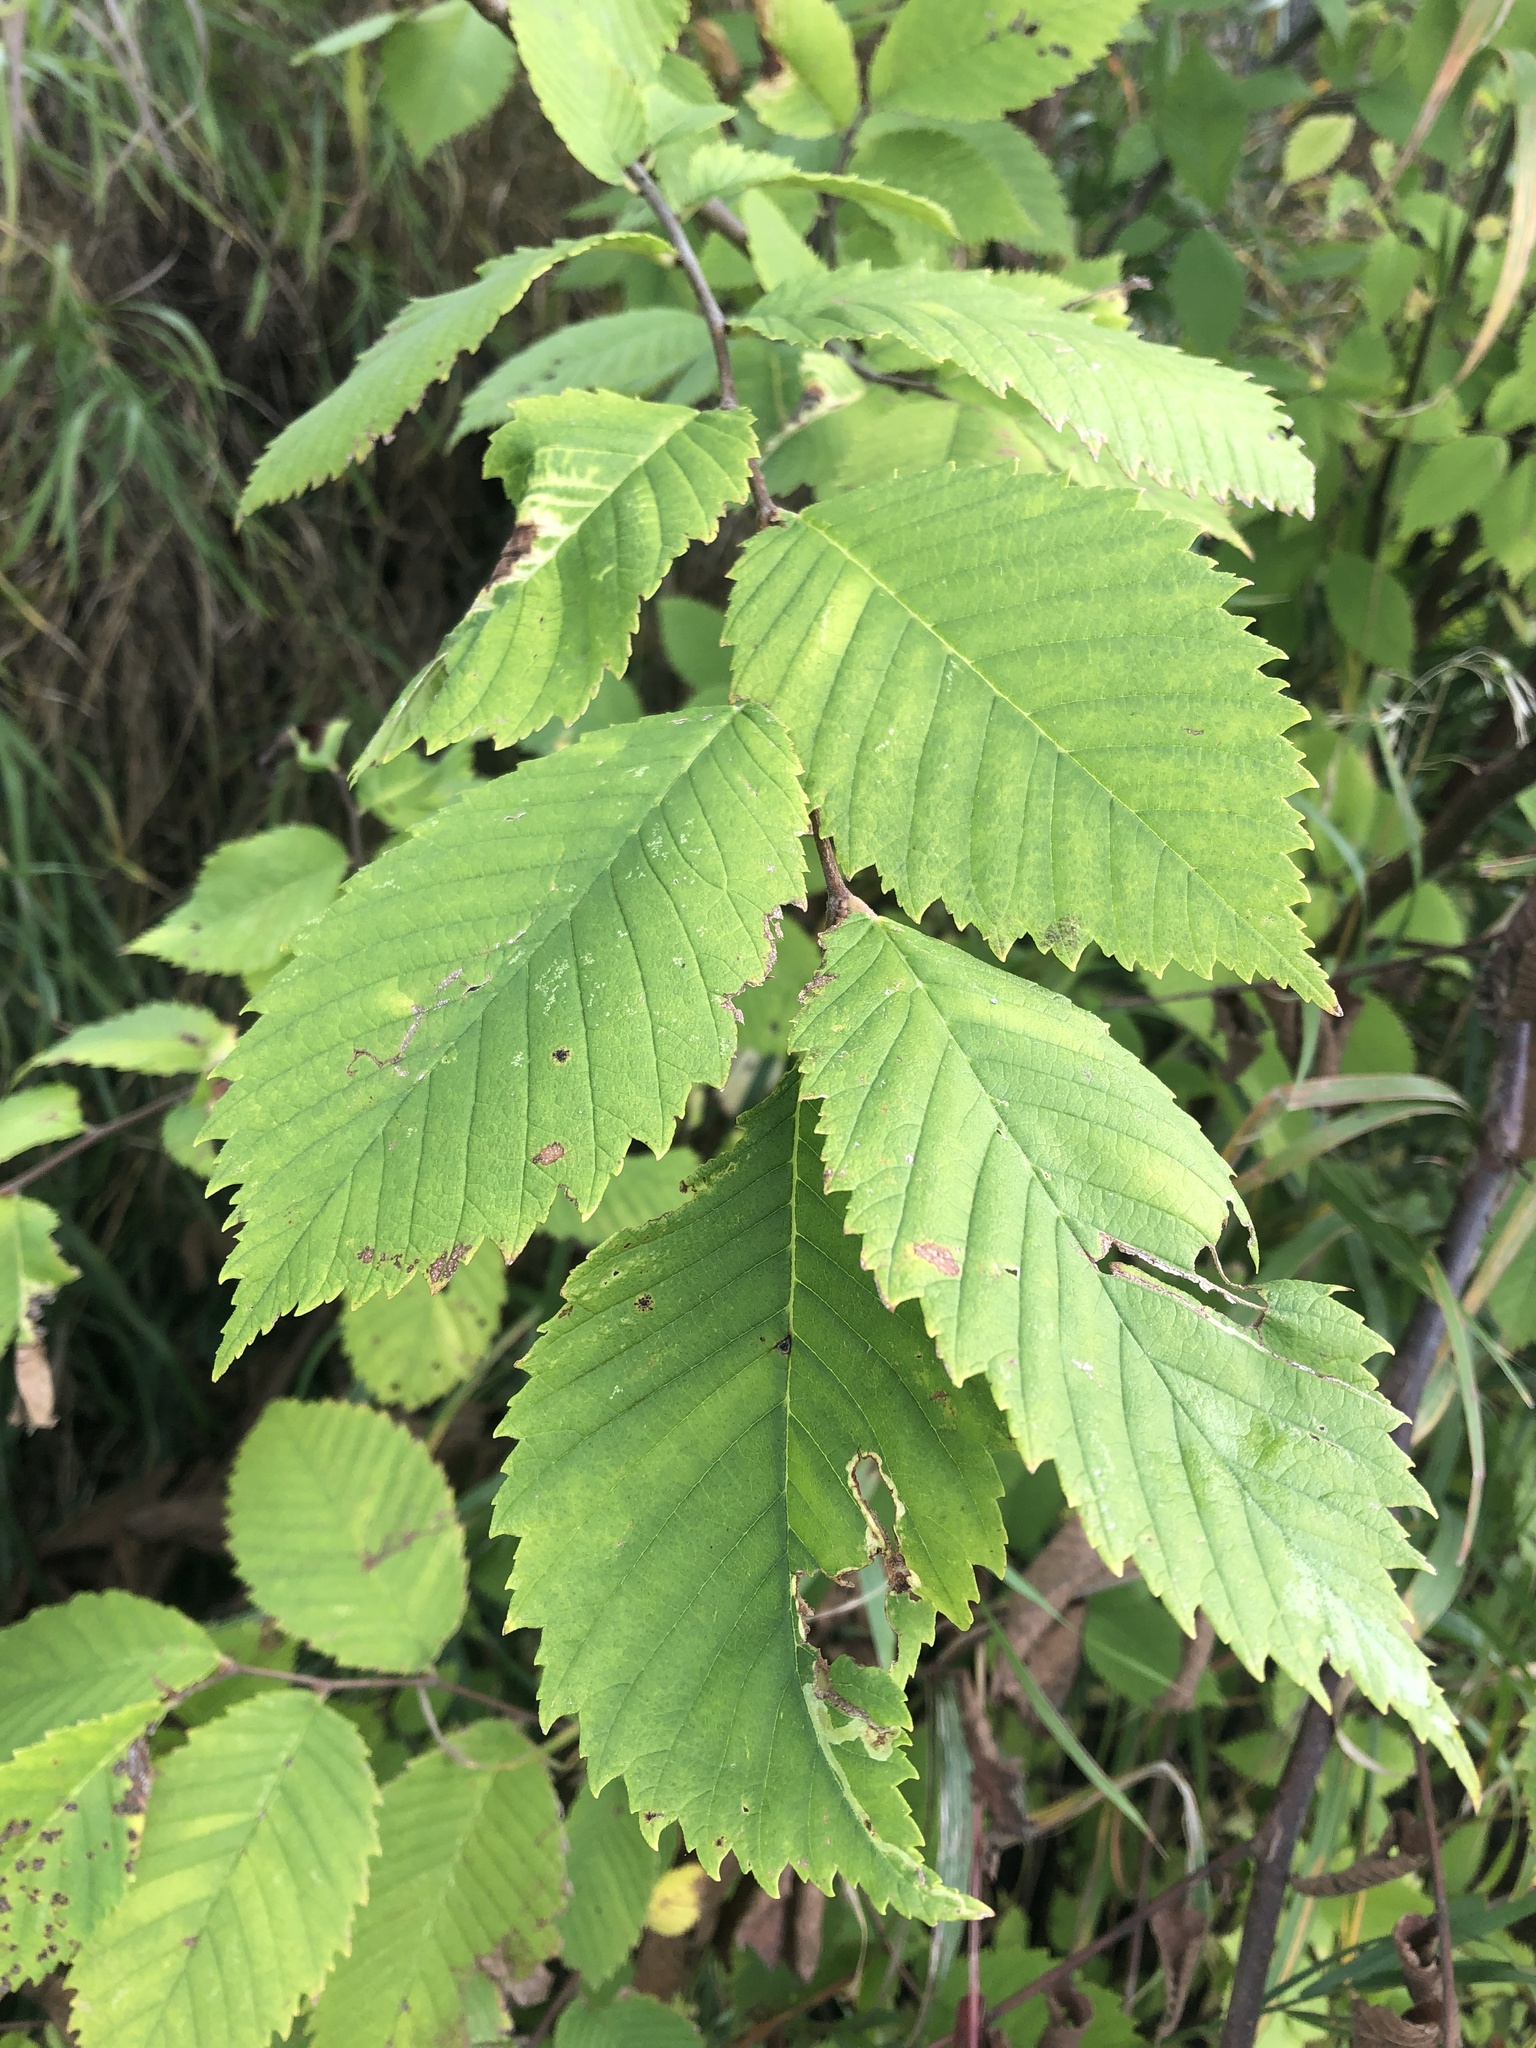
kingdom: Plantae
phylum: Tracheophyta
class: Magnoliopsida
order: Rosales
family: Ulmaceae
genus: Ulmus
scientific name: Ulmus americana
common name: American elm
